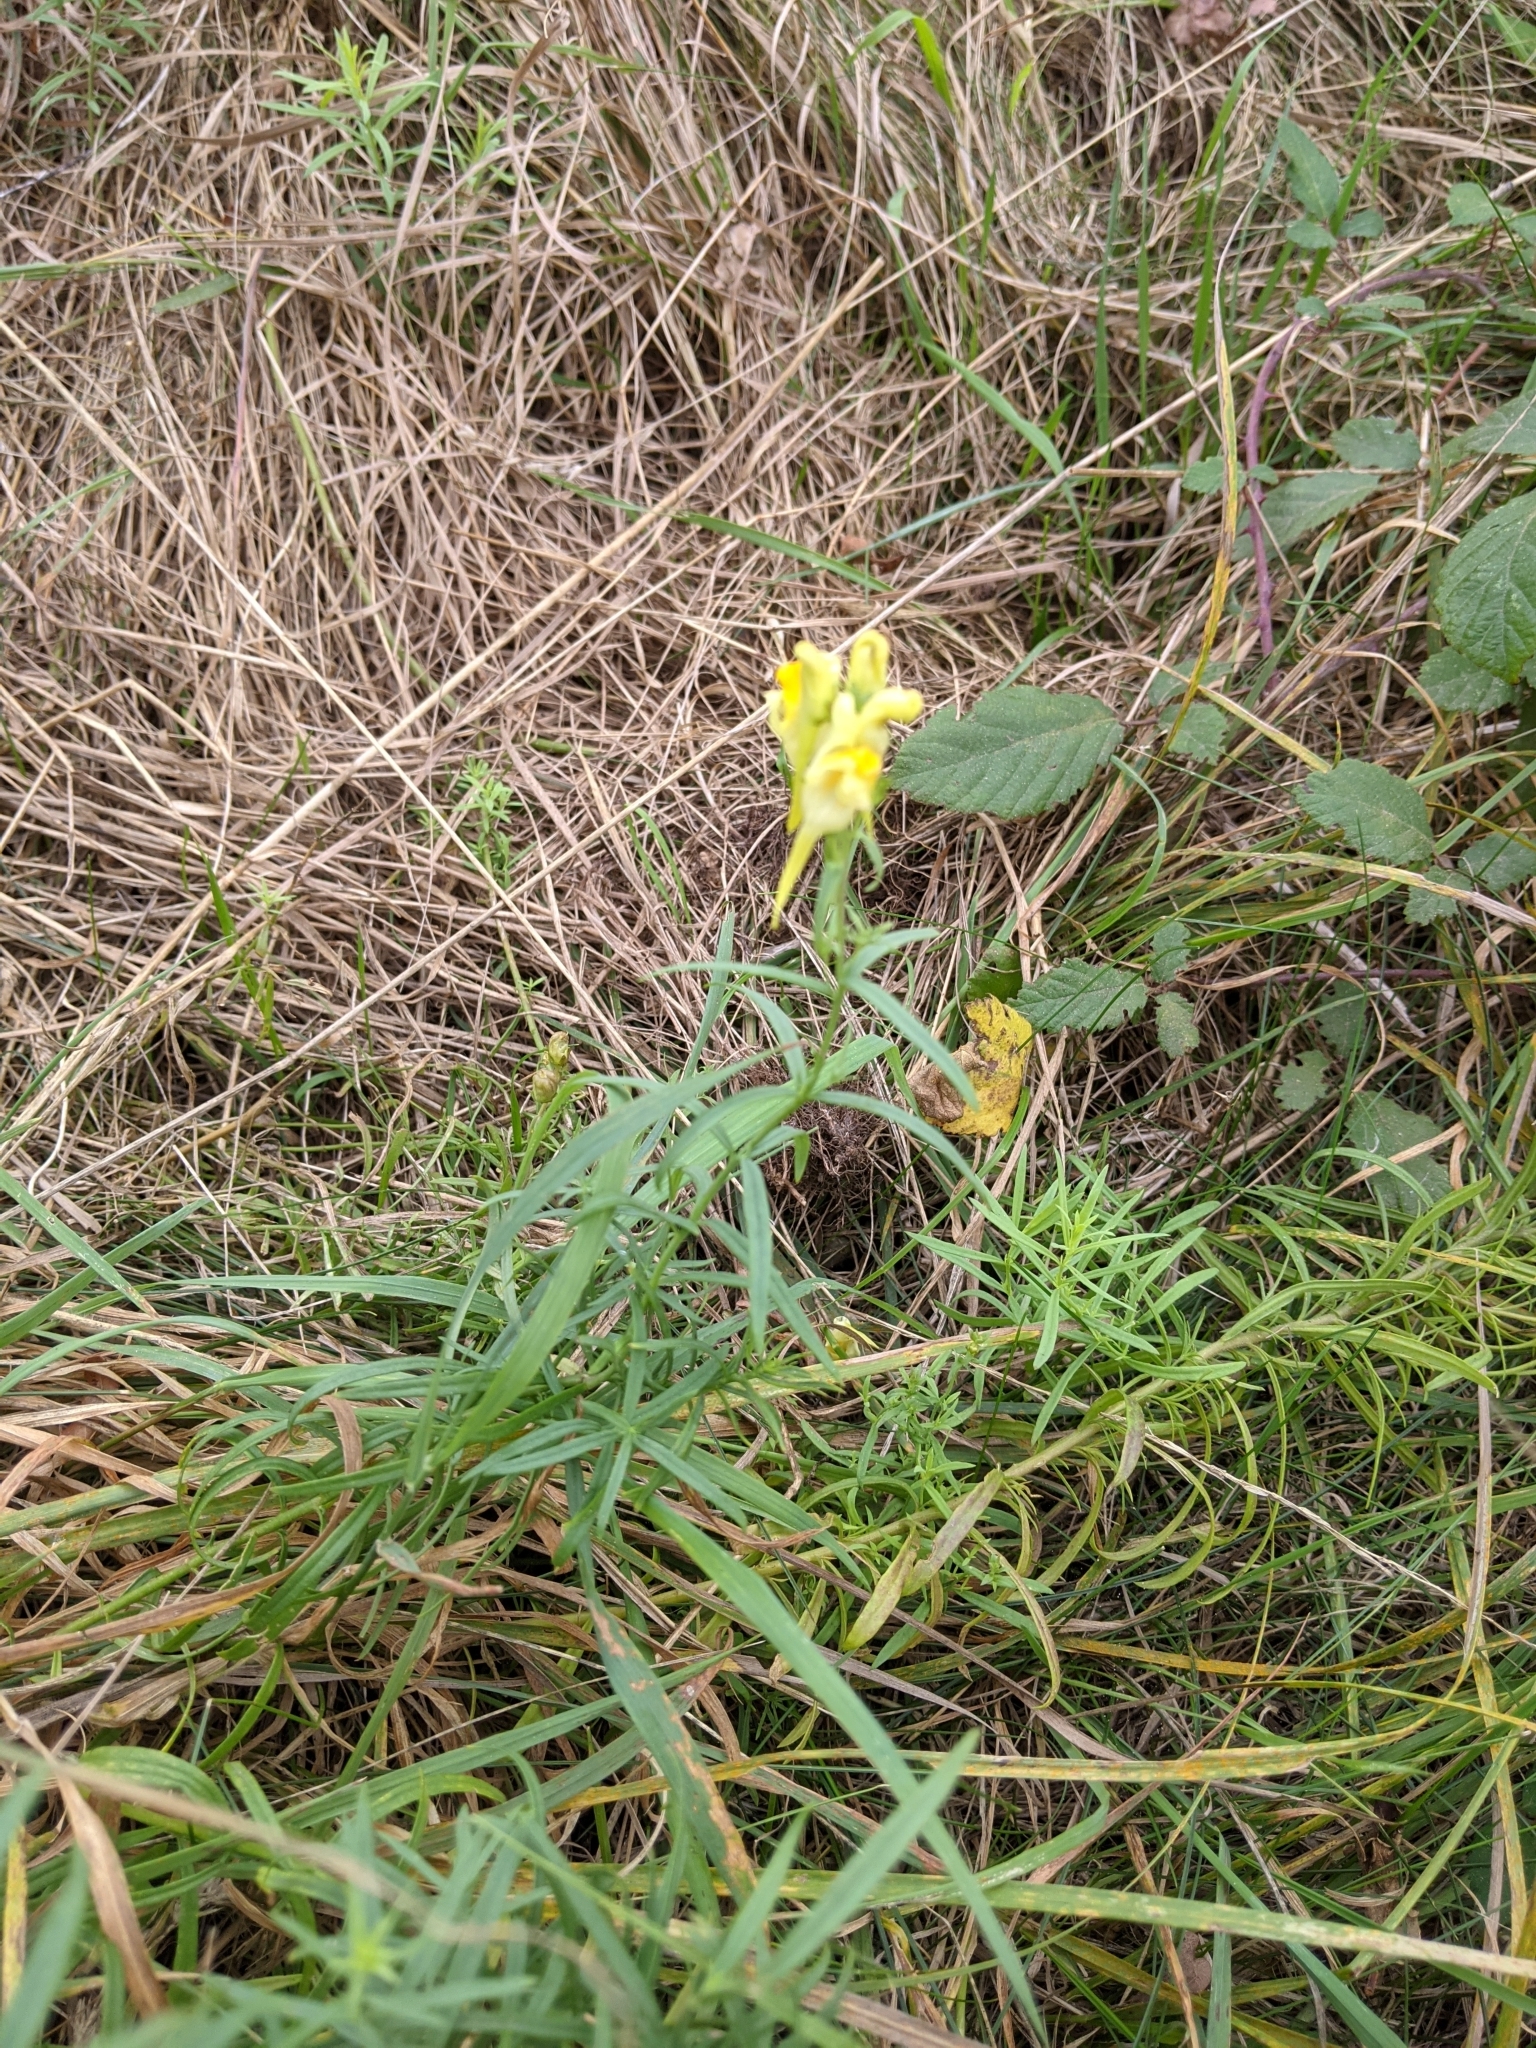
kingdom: Plantae
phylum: Tracheophyta
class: Magnoliopsida
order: Lamiales
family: Plantaginaceae
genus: Linaria
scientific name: Linaria vulgaris
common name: Butter and eggs
